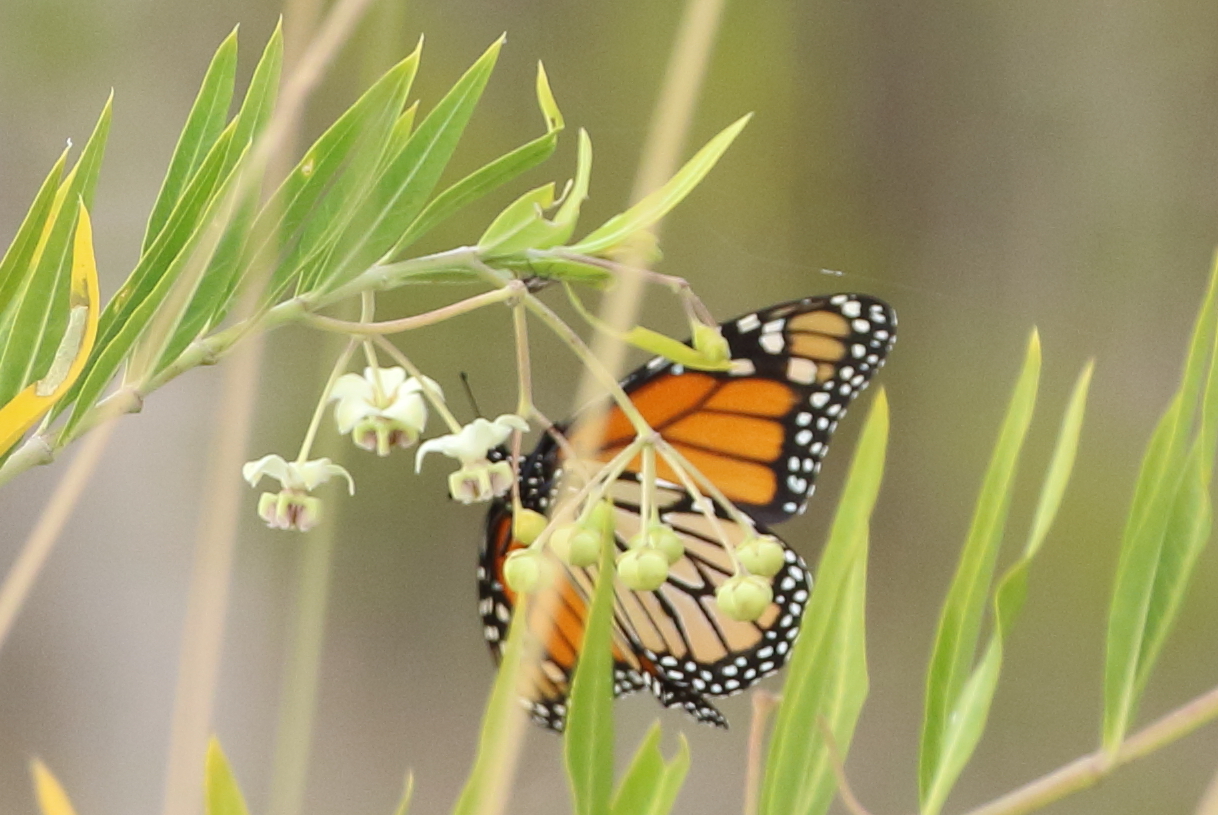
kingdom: Animalia
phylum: Arthropoda
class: Insecta
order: Lepidoptera
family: Nymphalidae
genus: Danaus
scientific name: Danaus plexippus
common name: Monarch
